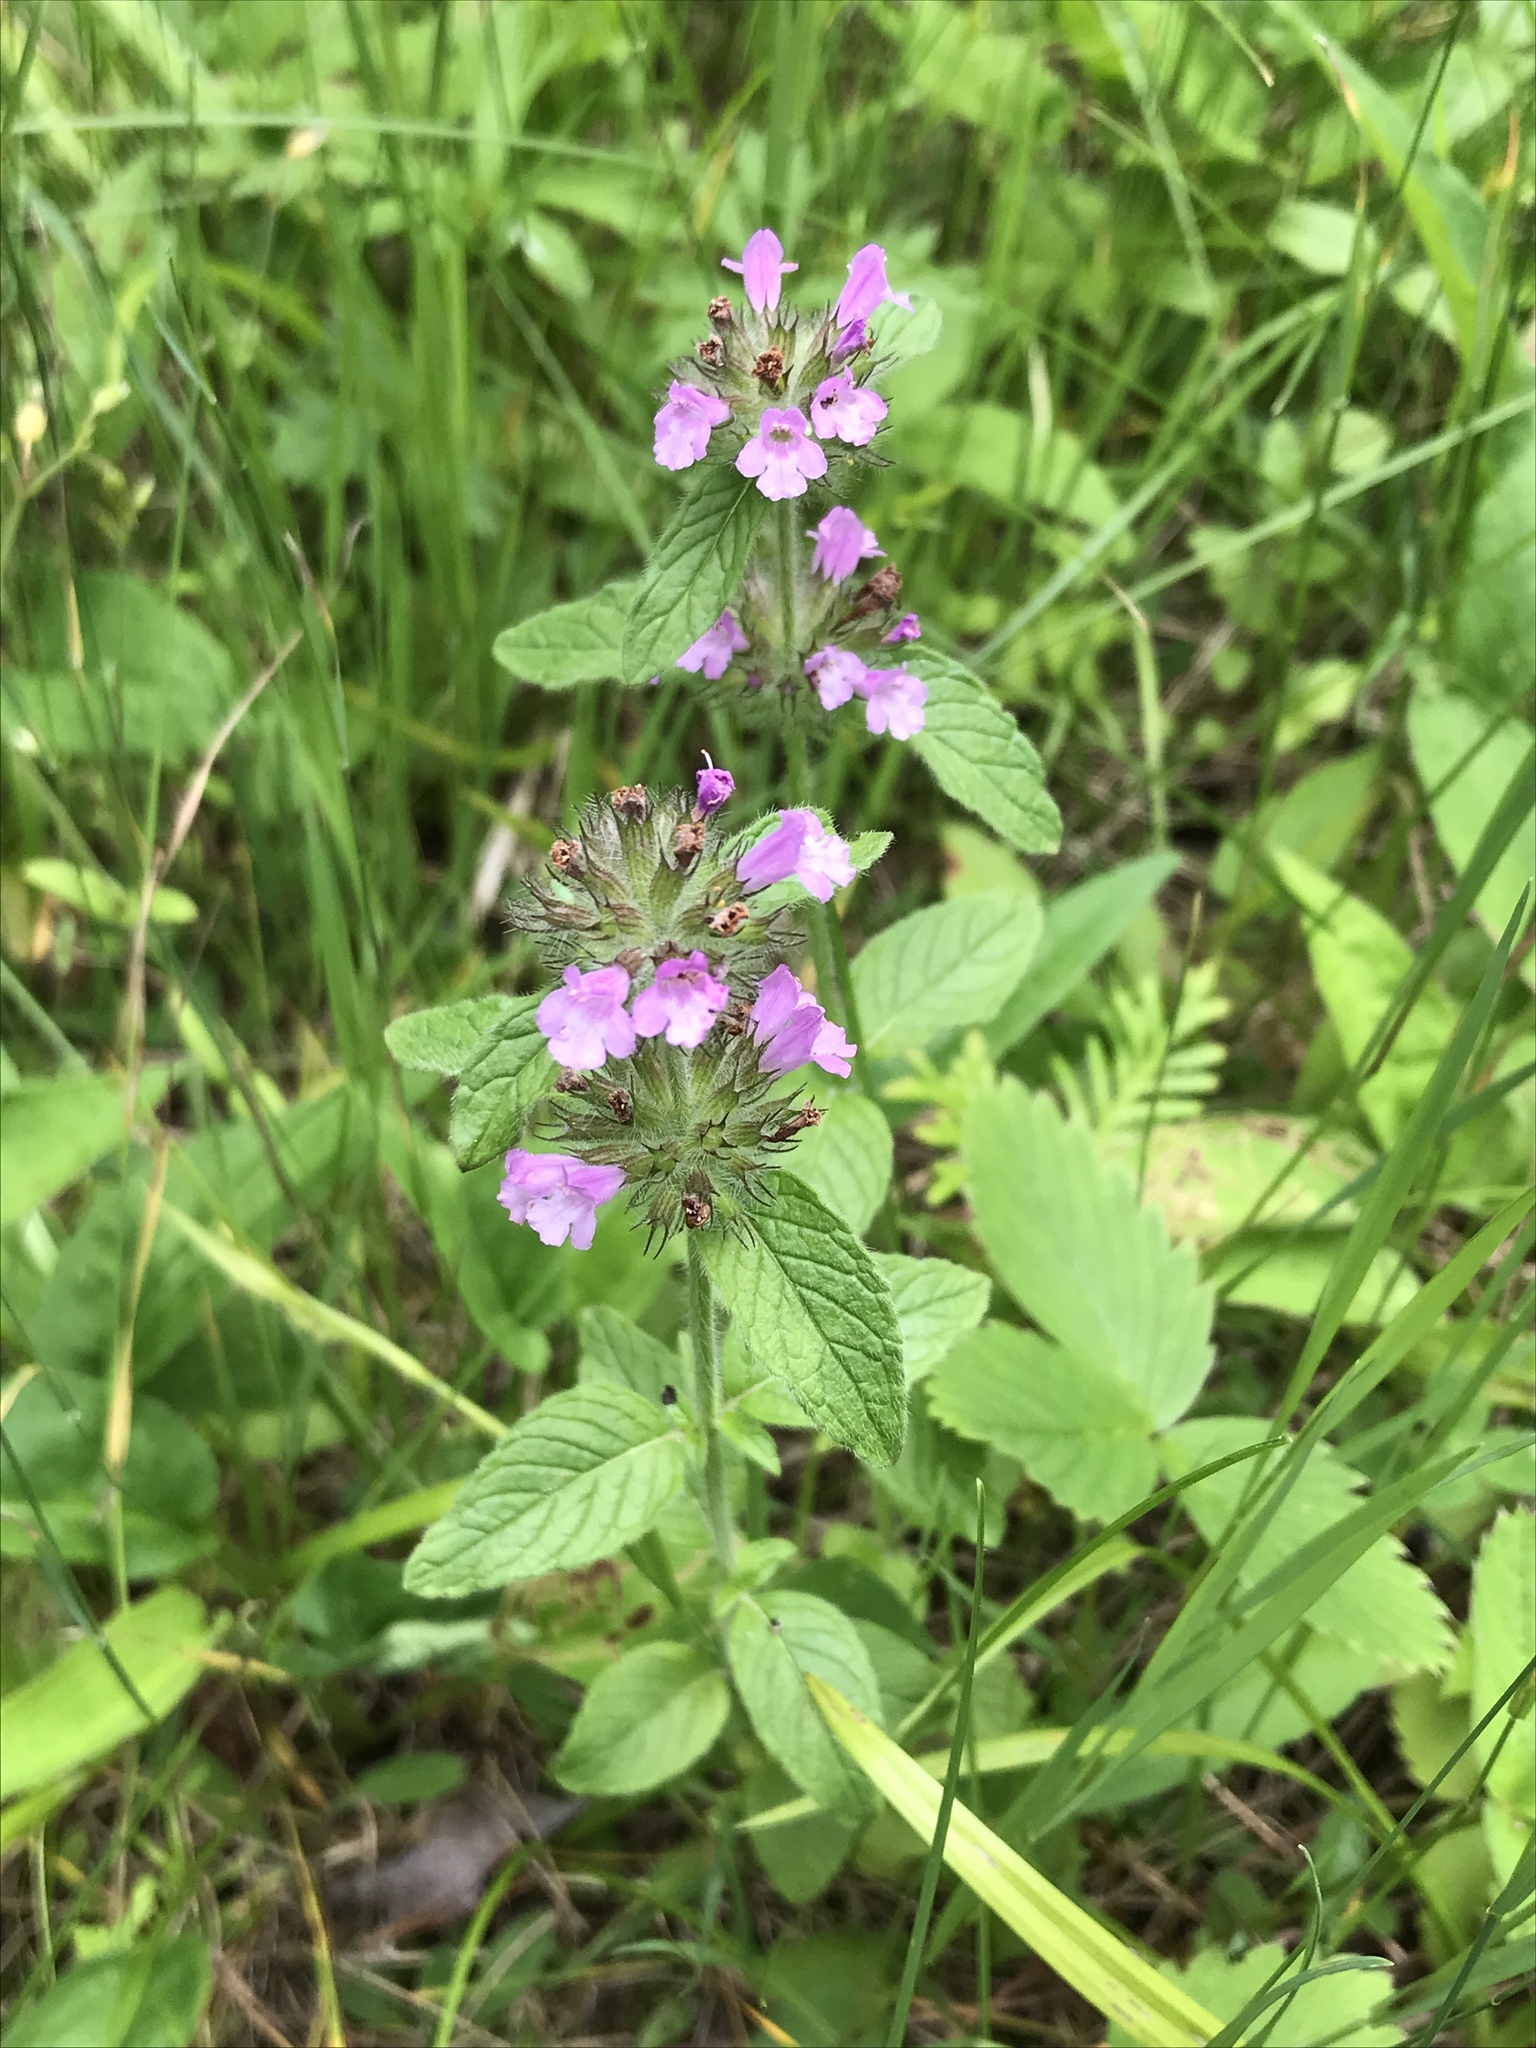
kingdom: Plantae
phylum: Tracheophyta
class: Magnoliopsida
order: Lamiales
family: Lamiaceae
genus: Clinopodium
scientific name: Clinopodium vulgare
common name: Wild basil
